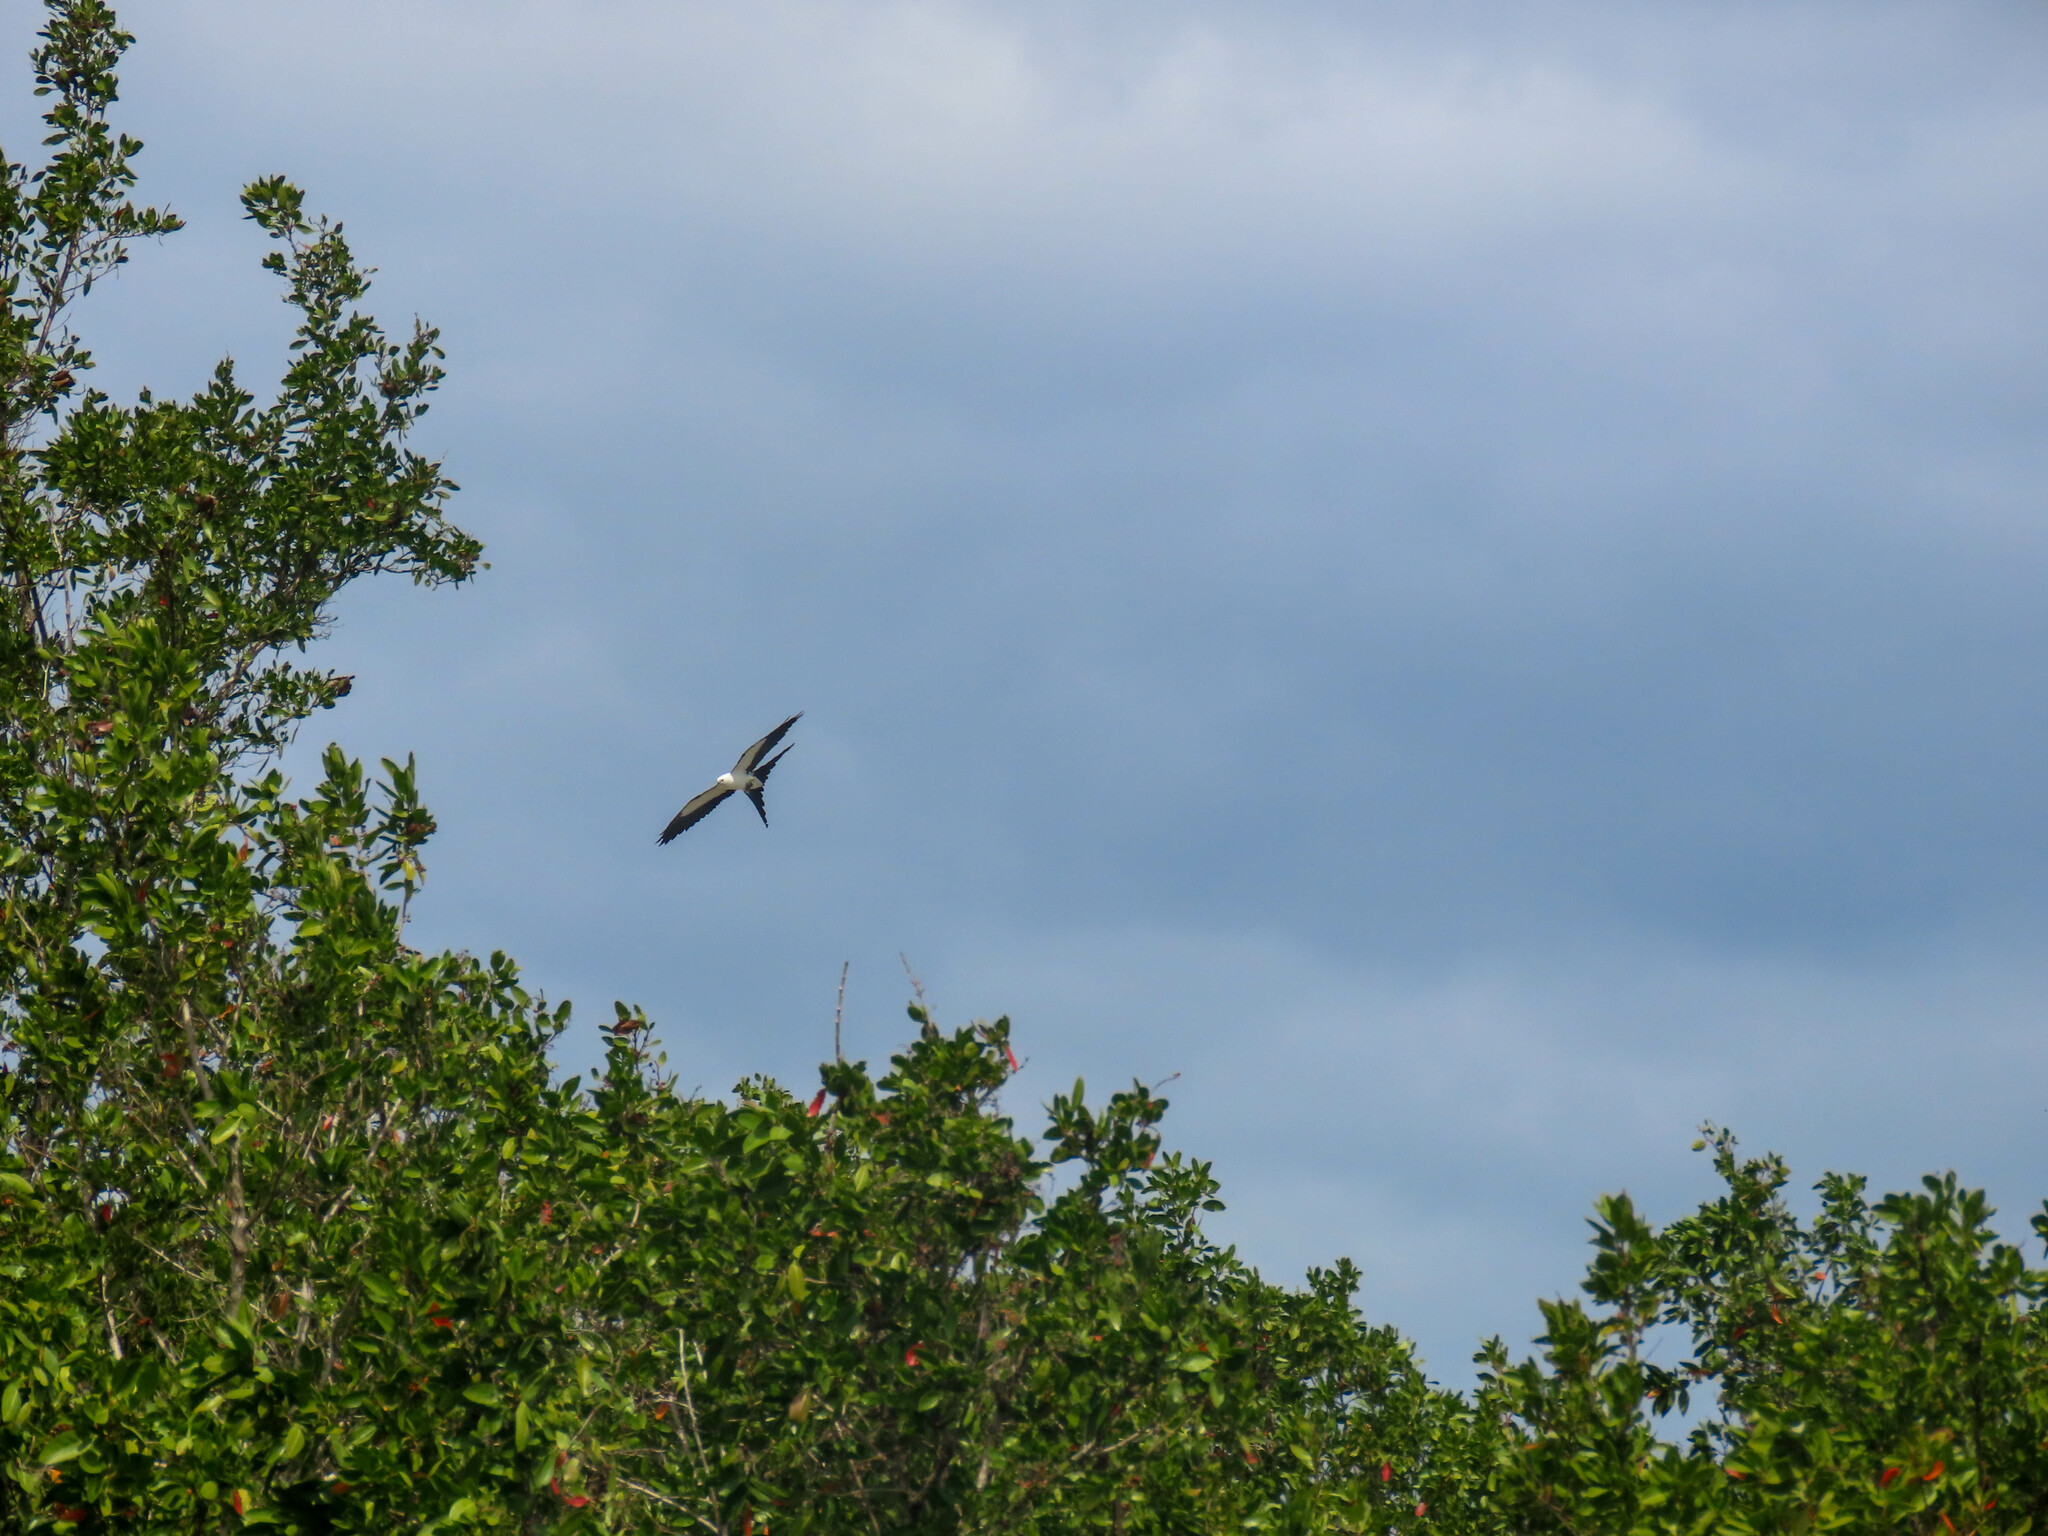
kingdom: Animalia
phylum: Chordata
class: Aves
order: Accipitriformes
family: Accipitridae
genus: Elanoides
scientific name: Elanoides forficatus
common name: Swallow-tailed kite
